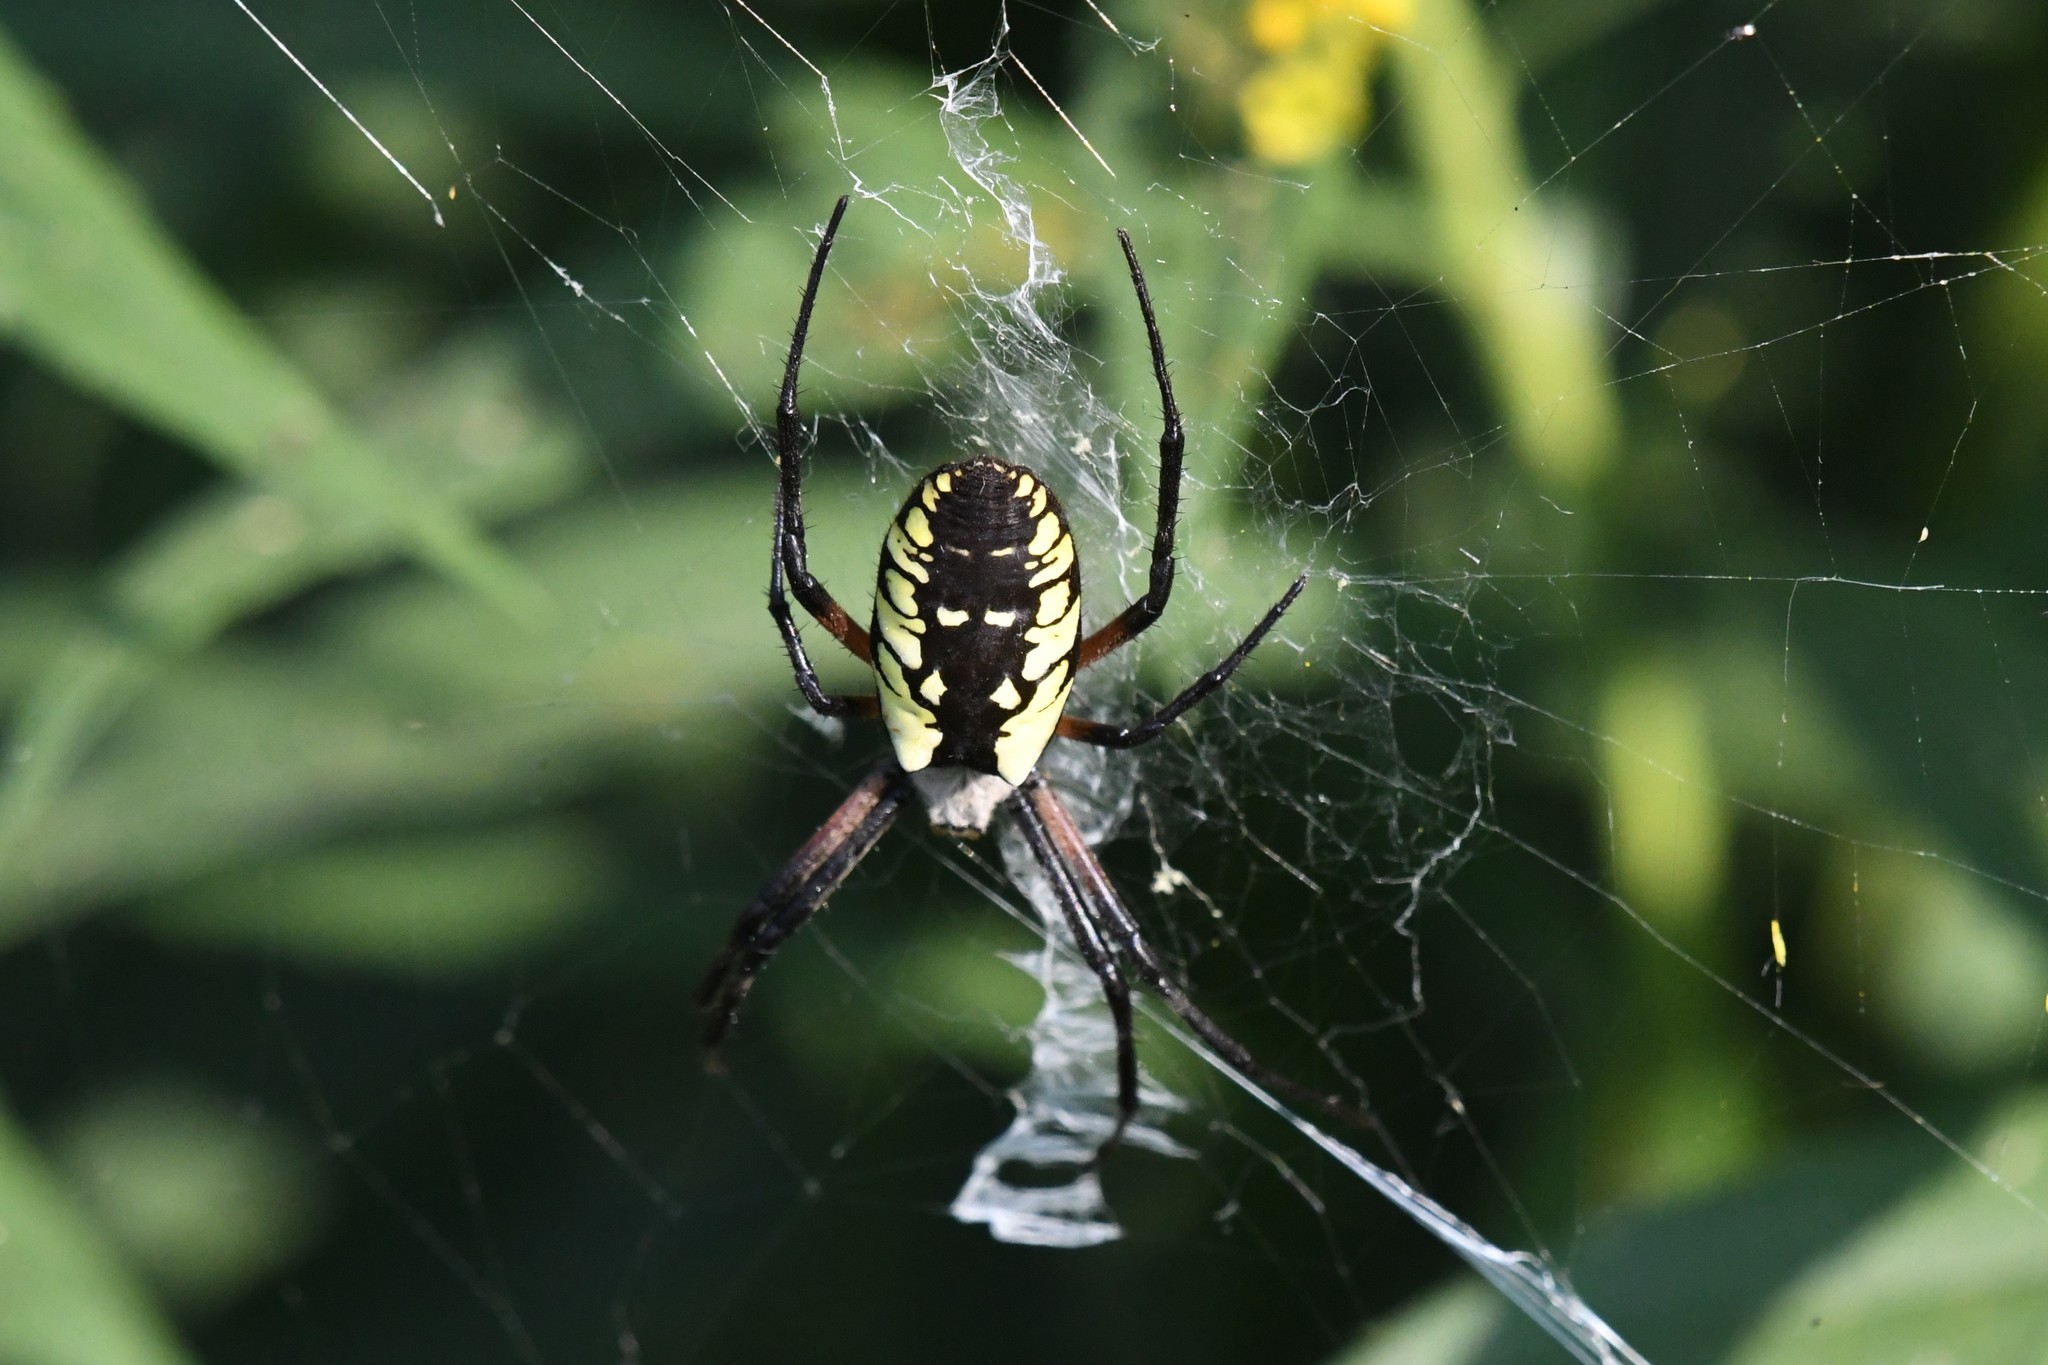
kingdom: Animalia
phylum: Arthropoda
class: Arachnida
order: Araneae
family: Araneidae
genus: Argiope
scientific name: Argiope aurantia
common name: Orb weavers
